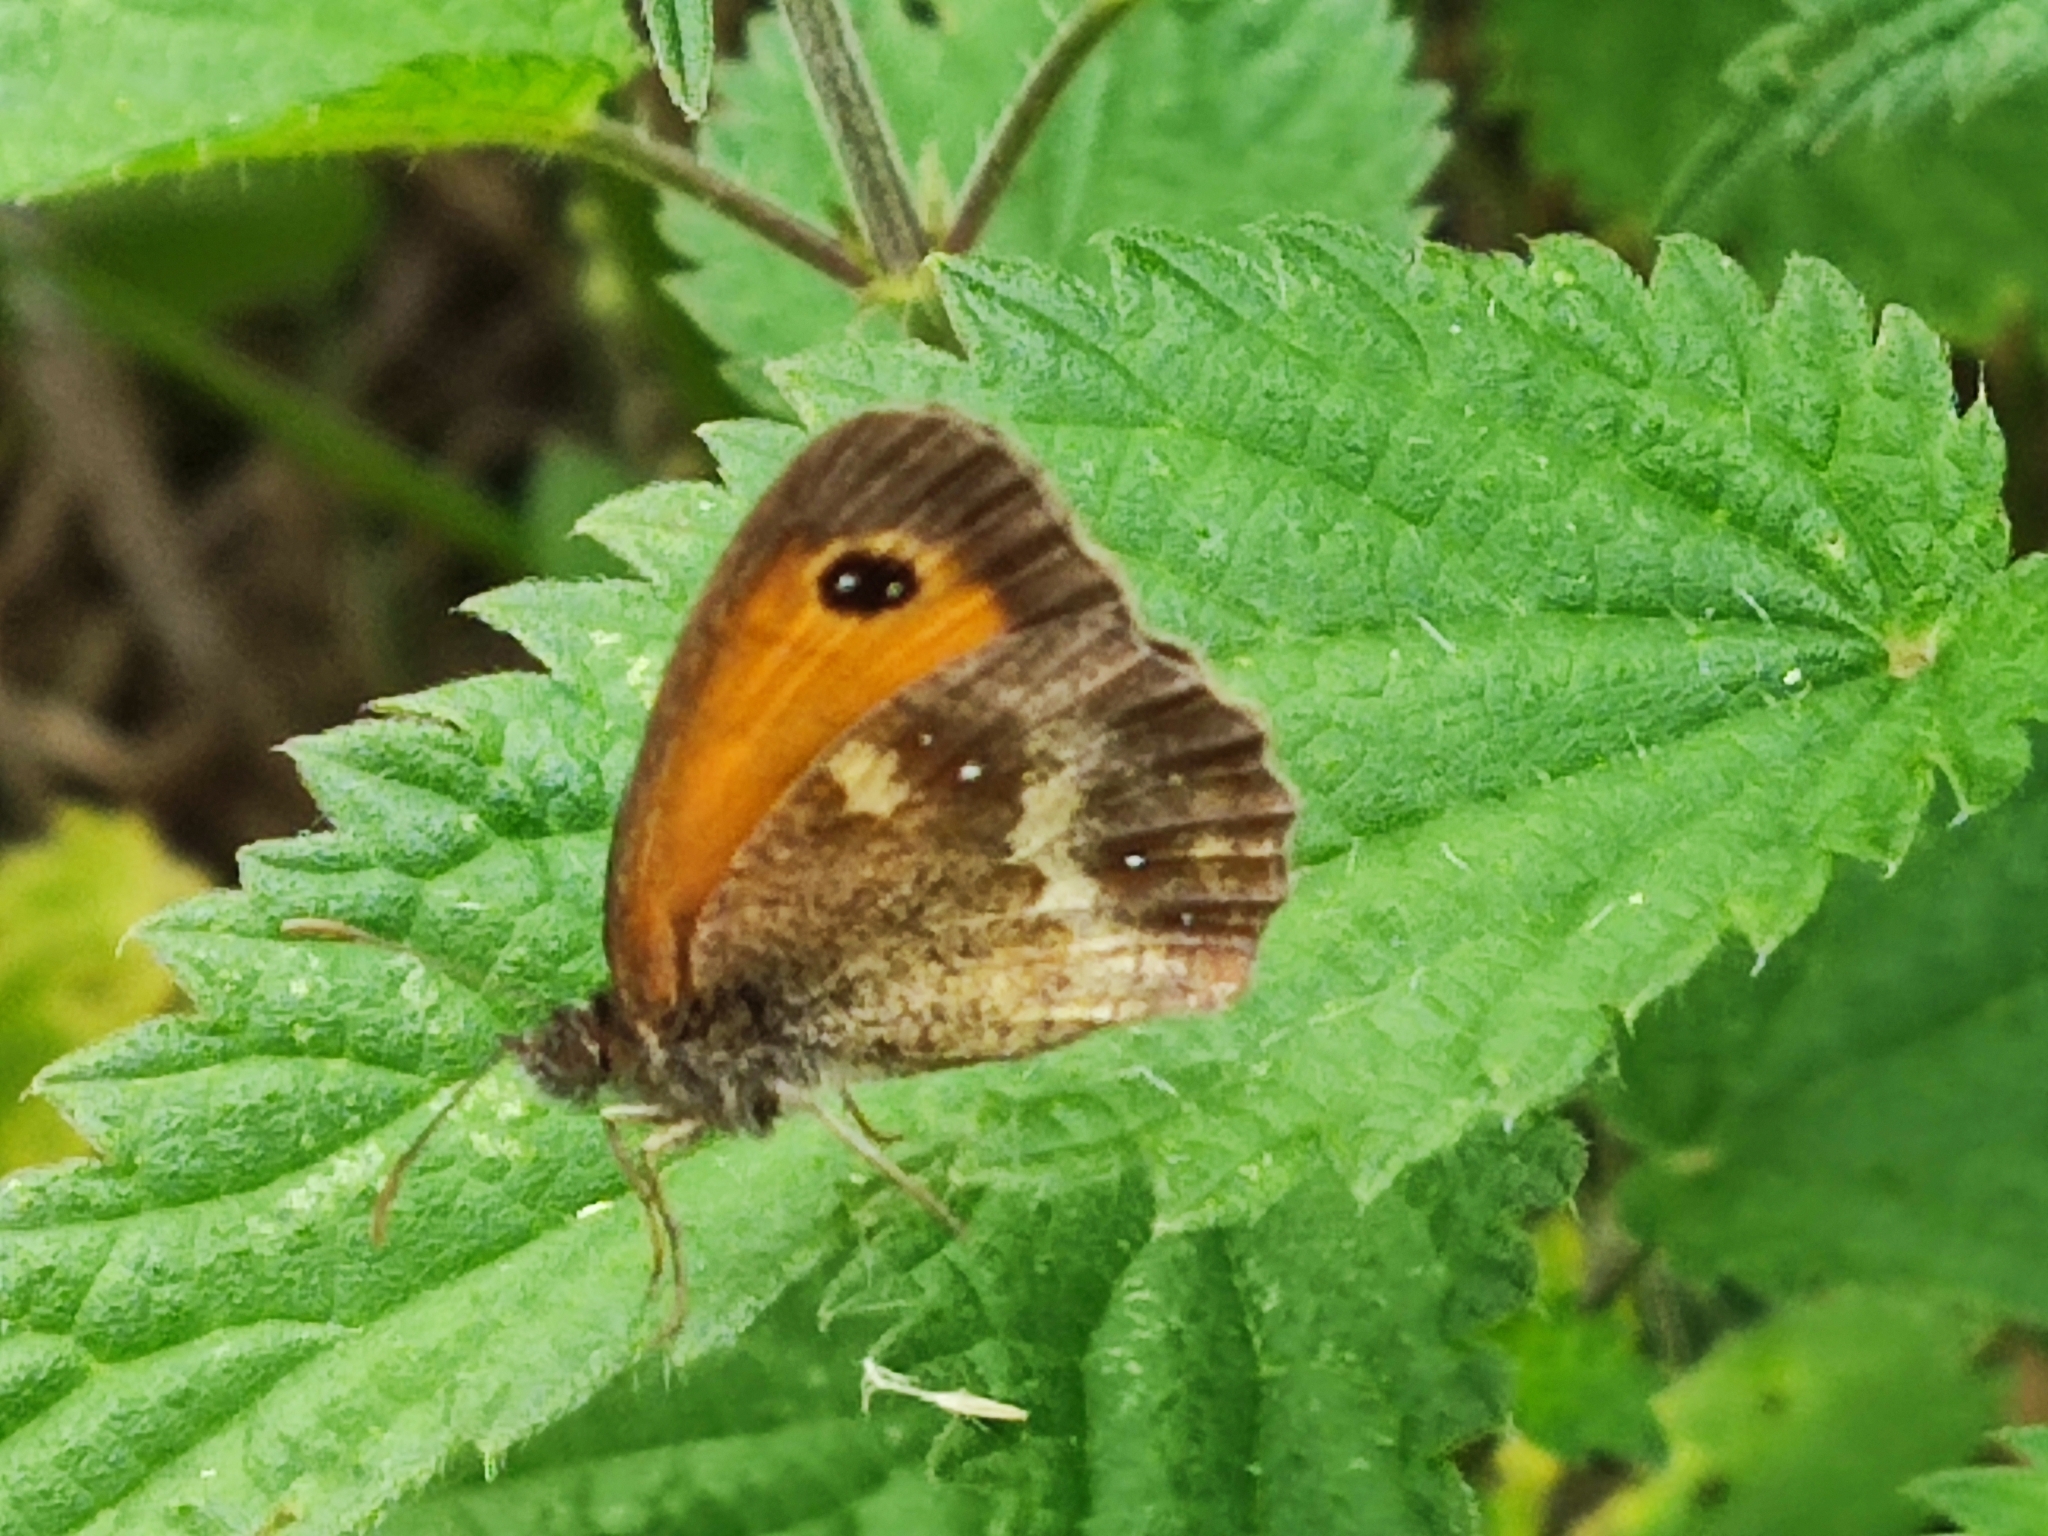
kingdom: Animalia
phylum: Arthropoda
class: Insecta
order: Lepidoptera
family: Nymphalidae
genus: Pyronia
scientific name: Pyronia tithonus
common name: Gatekeeper
